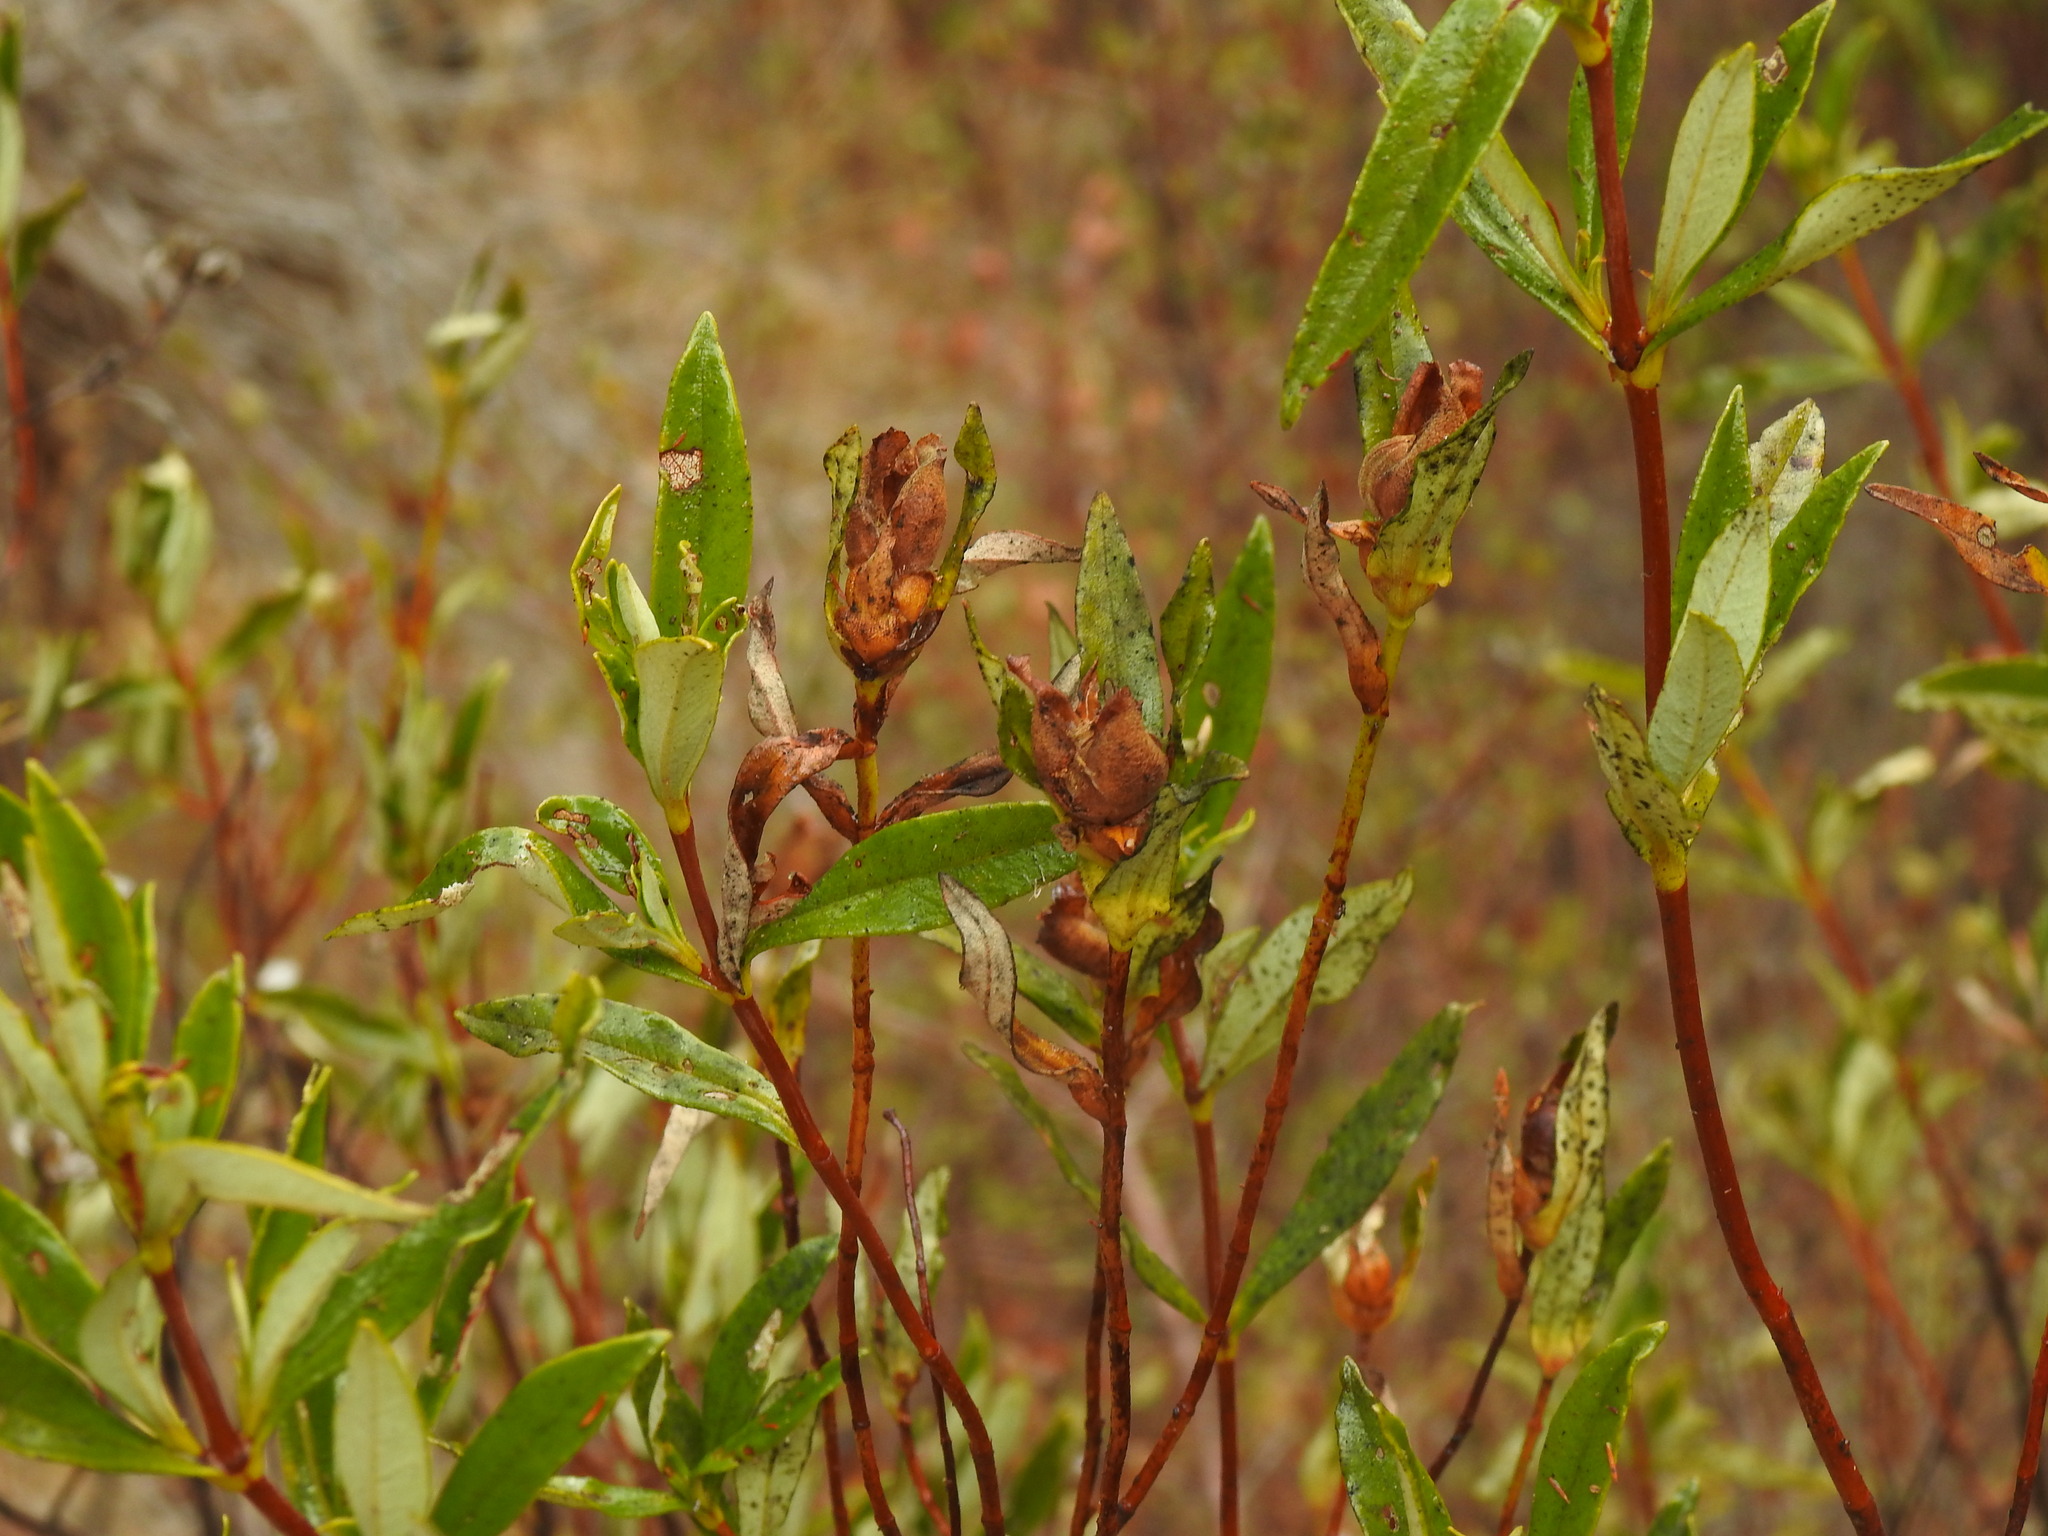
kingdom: Plantae
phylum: Tracheophyta
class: Magnoliopsida
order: Malvales
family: Cistaceae
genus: Cistus
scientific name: Cistus ladanifer
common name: Common gum cistus
